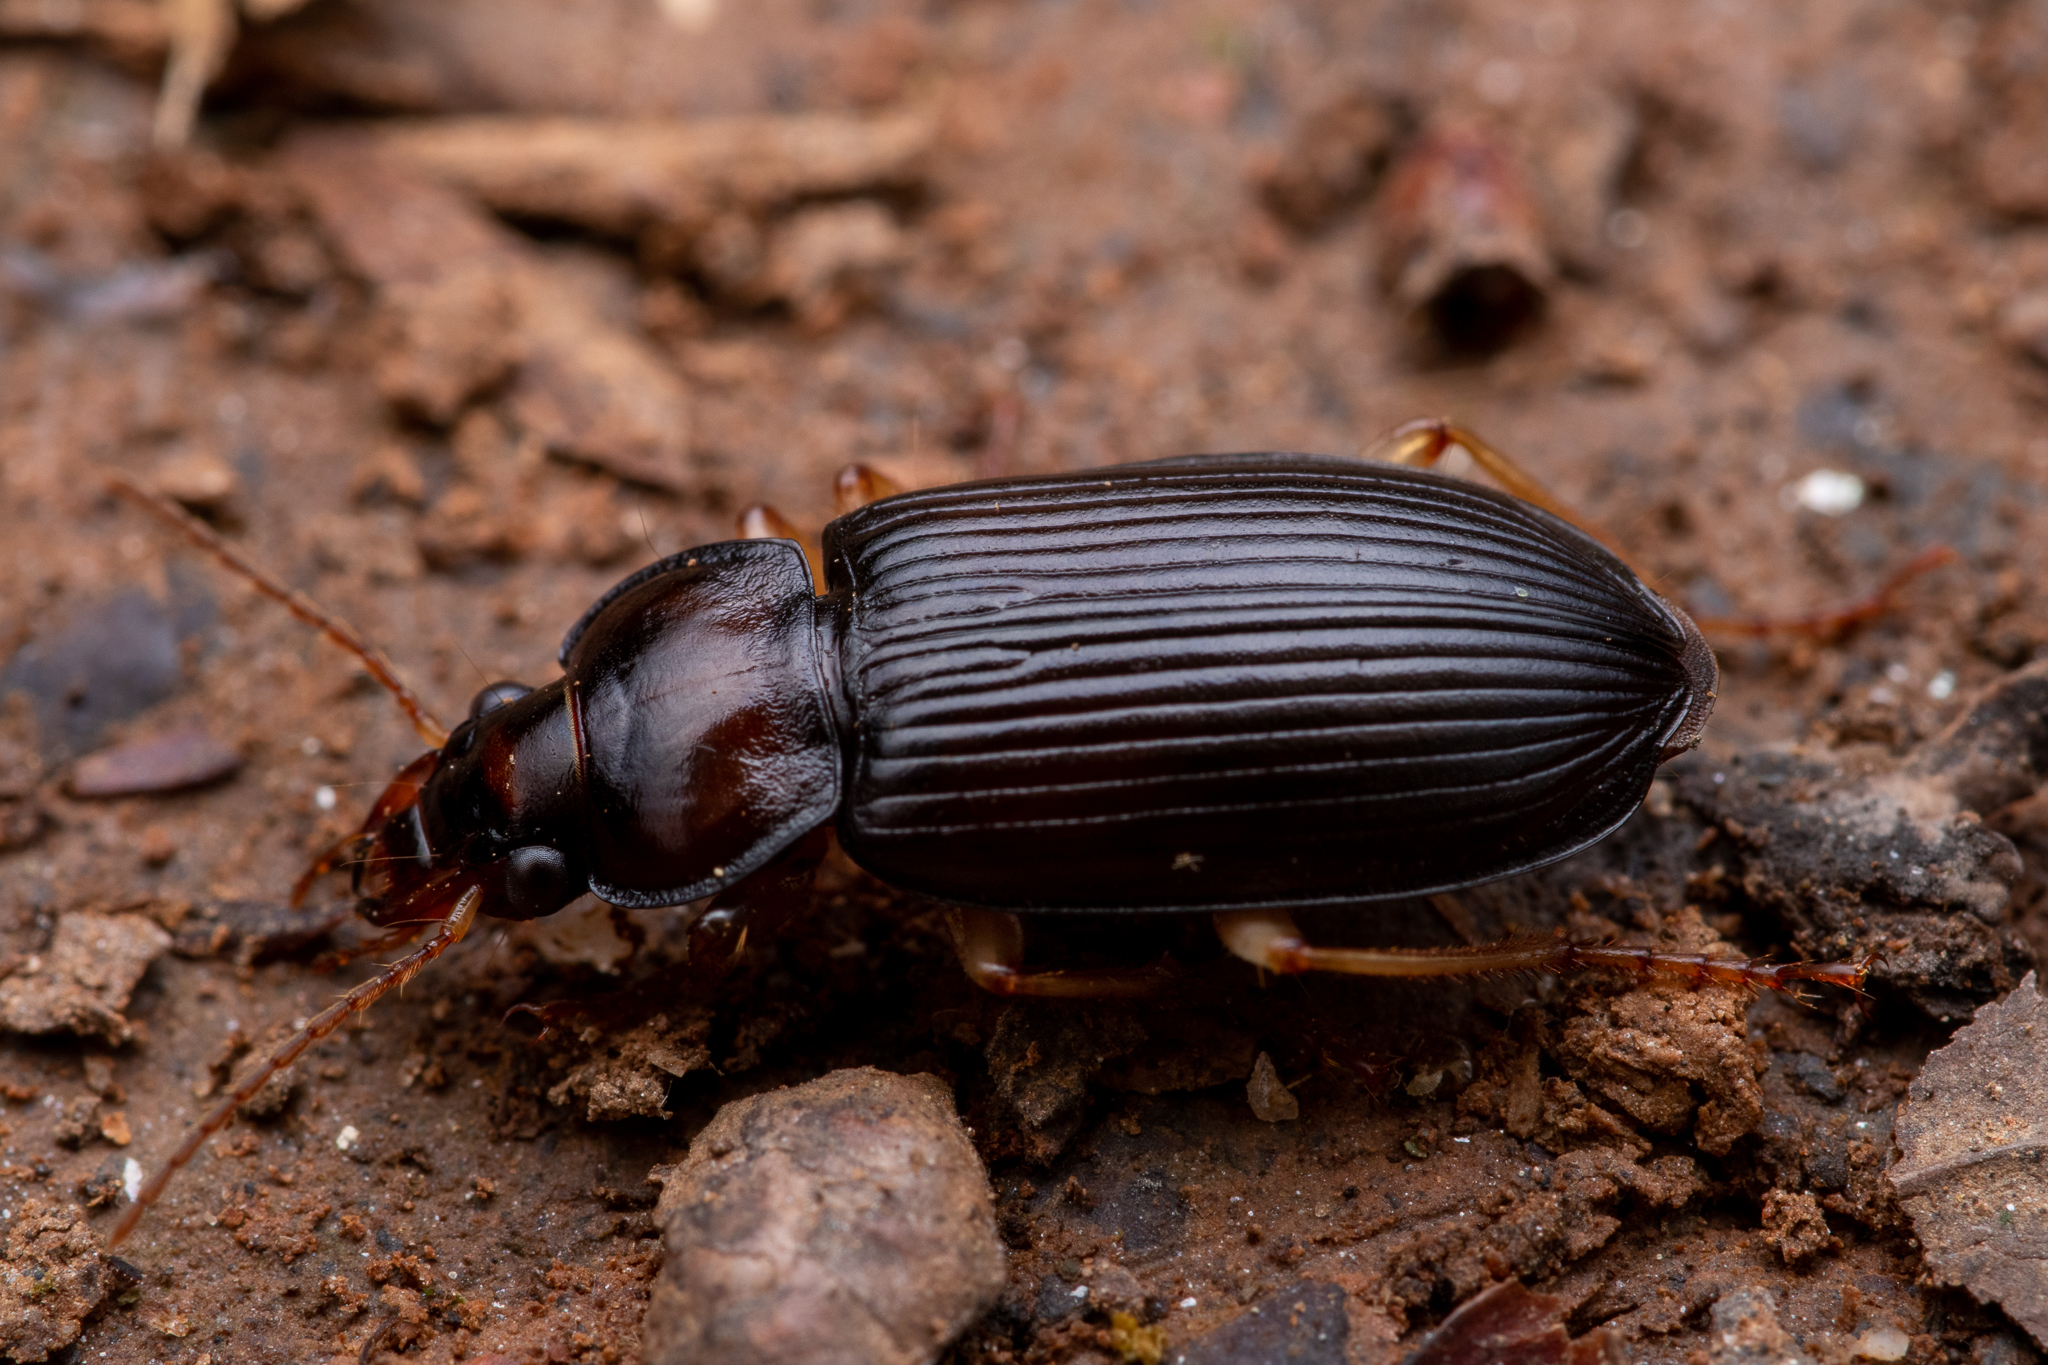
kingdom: Animalia
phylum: Arthropoda
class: Insecta
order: Coleoptera
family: Carabidae
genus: Anisodactylus
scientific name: Anisodactylus verticalis
